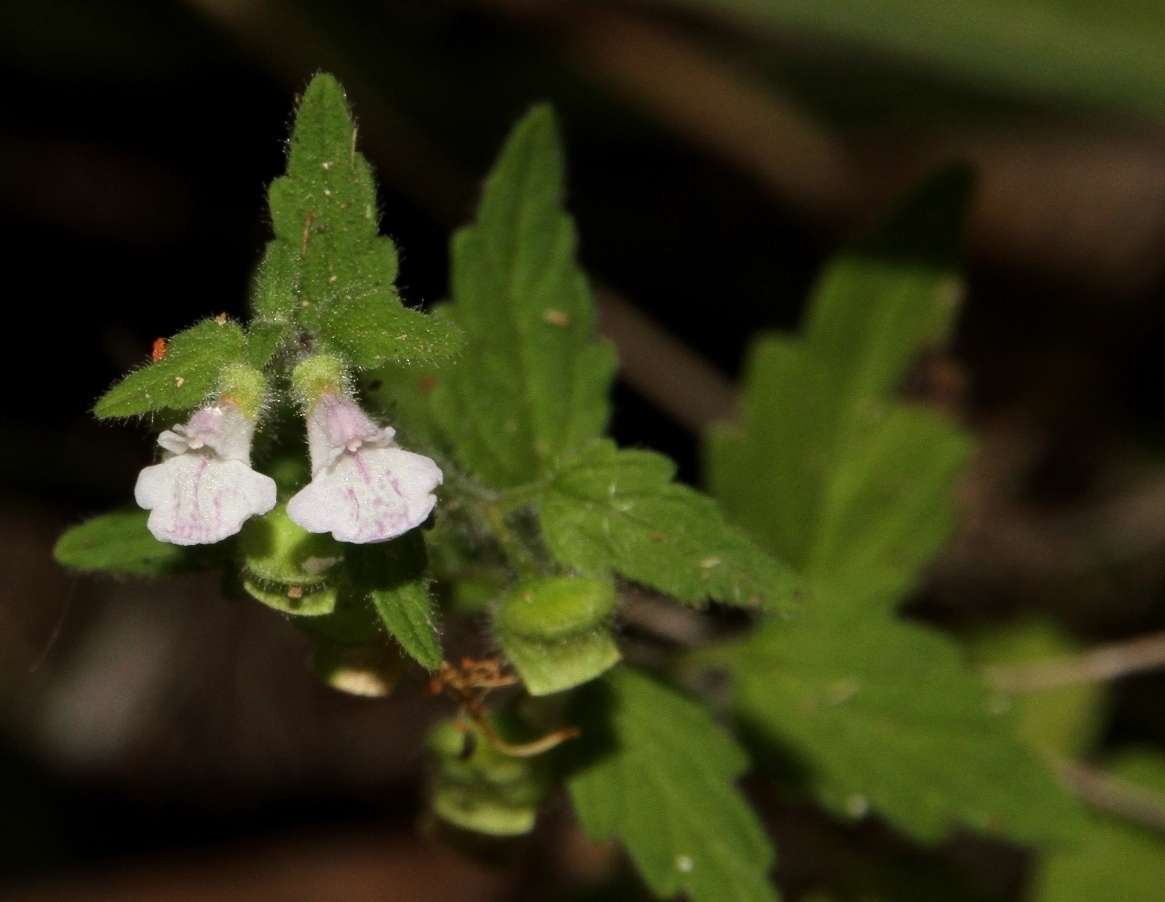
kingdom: Plantae
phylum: Tracheophyta
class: Magnoliopsida
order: Lamiales
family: Lamiaceae
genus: Scutellaria
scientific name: Scutellaria mollis
